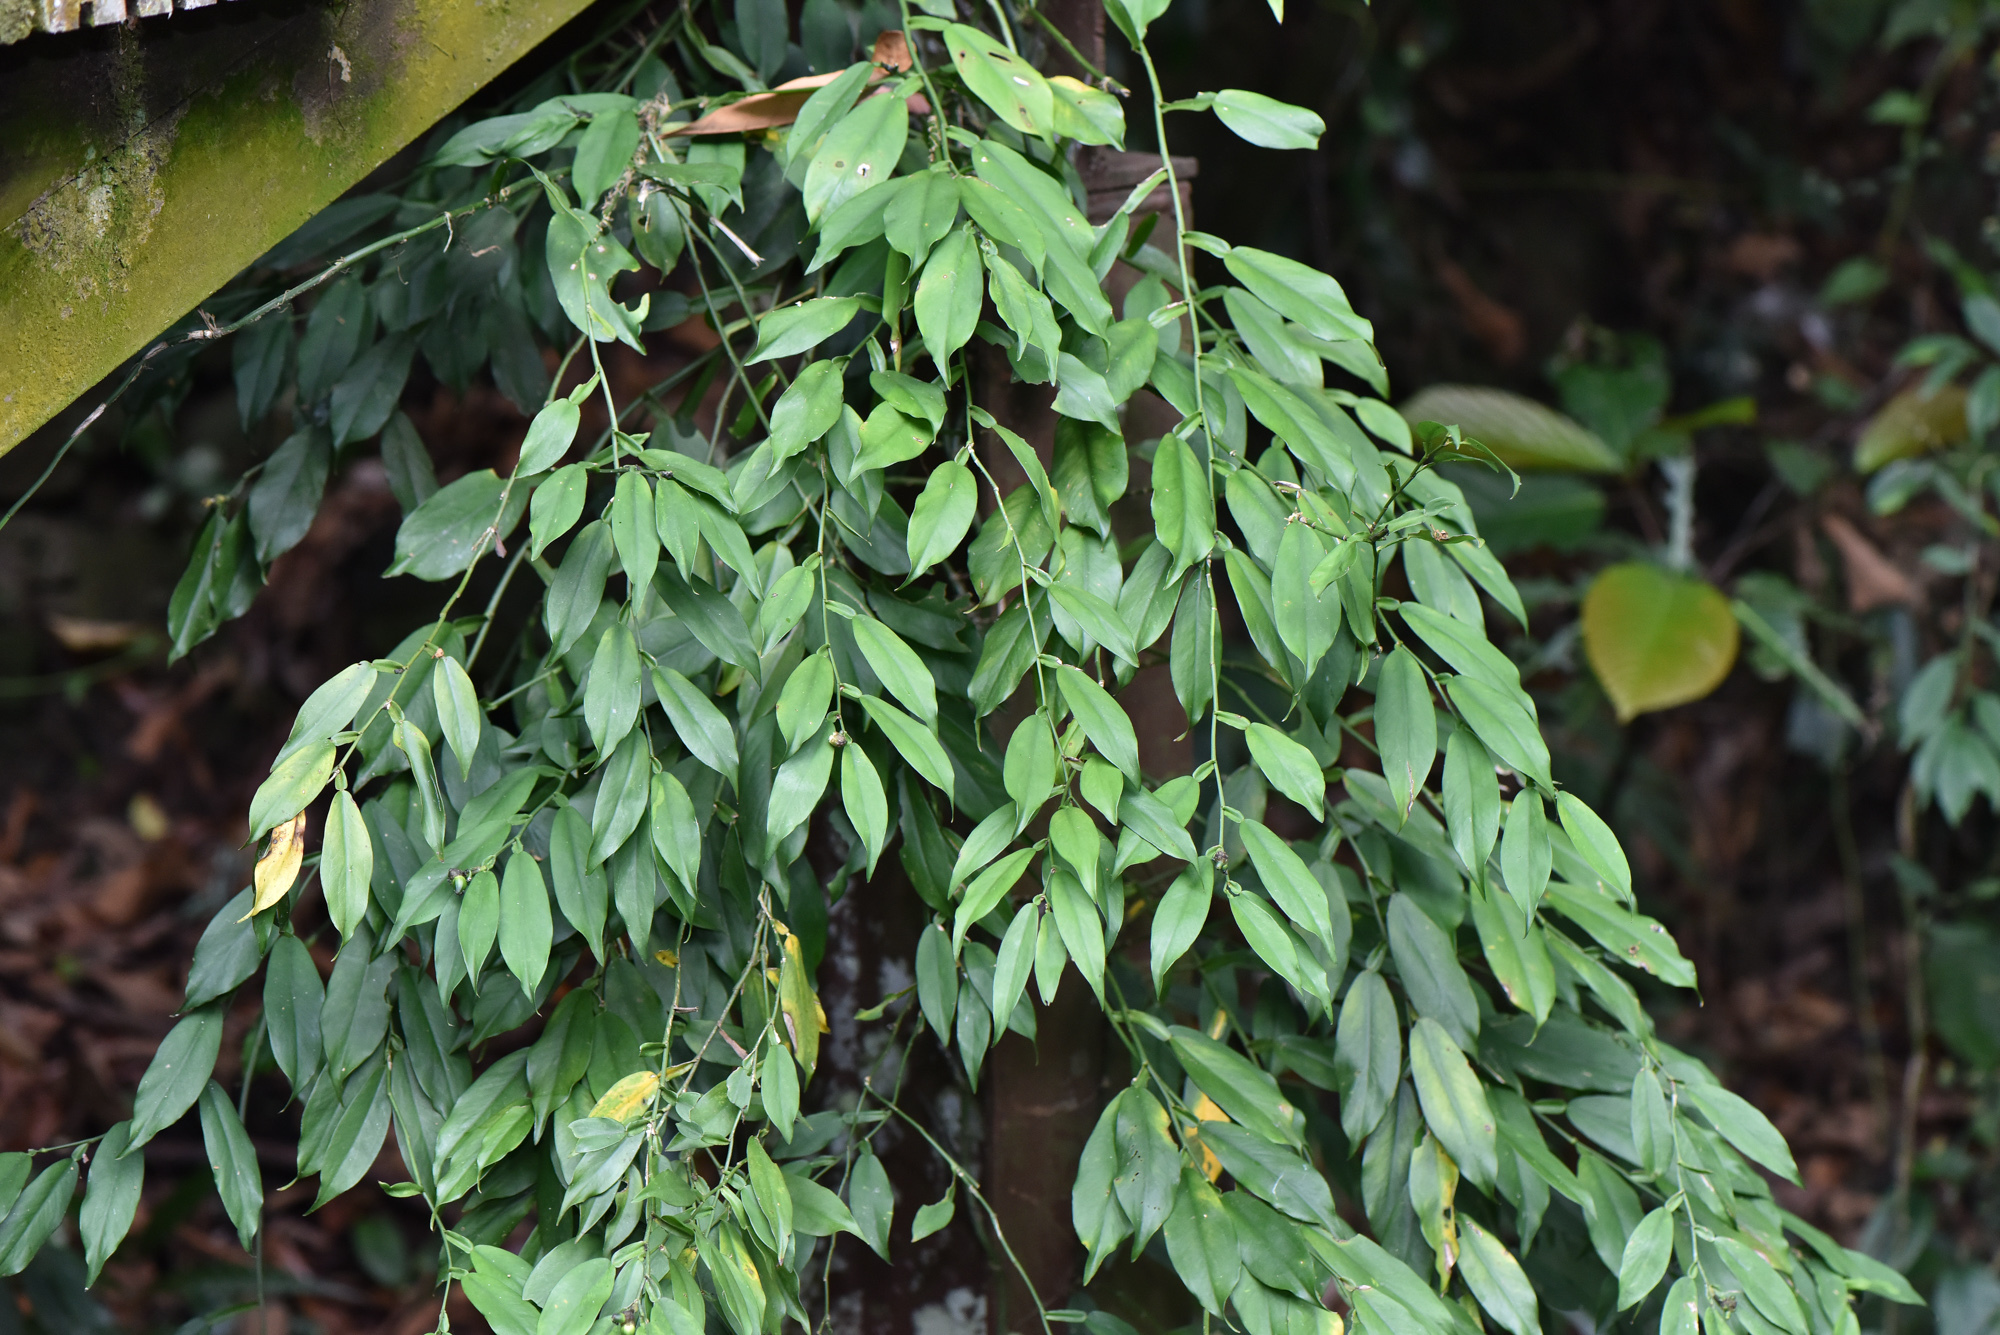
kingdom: Plantae
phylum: Tracheophyta
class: Liliopsida
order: Alismatales
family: Araceae
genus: Pothos
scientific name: Pothos chinensis
